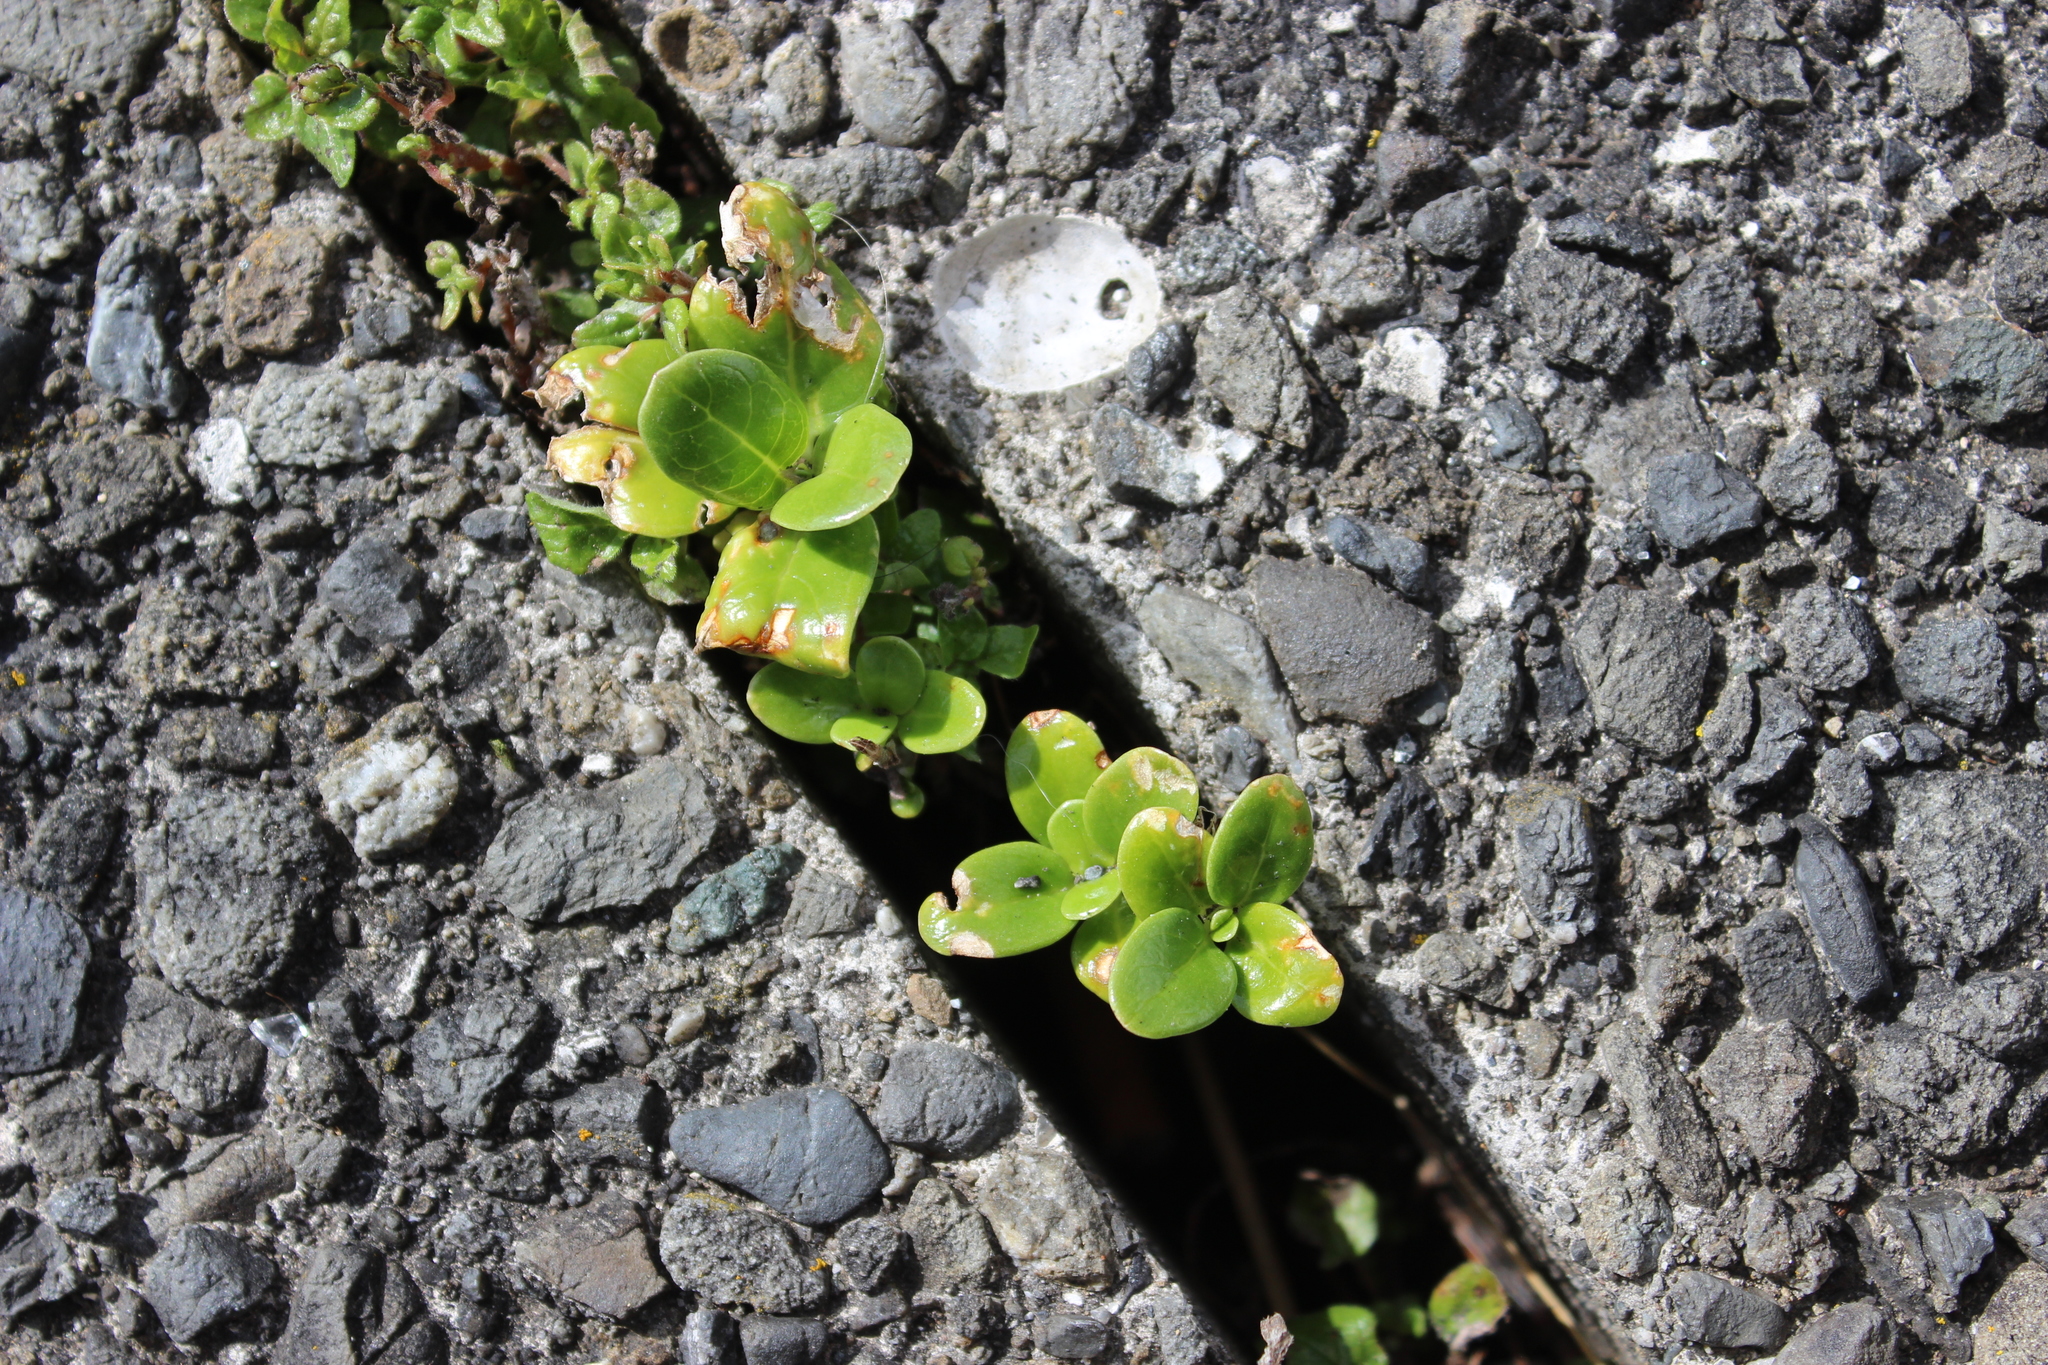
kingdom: Plantae
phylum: Tracheophyta
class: Magnoliopsida
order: Gentianales
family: Rubiaceae
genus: Coprosma
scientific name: Coprosma repens
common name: Tree bedstraw
